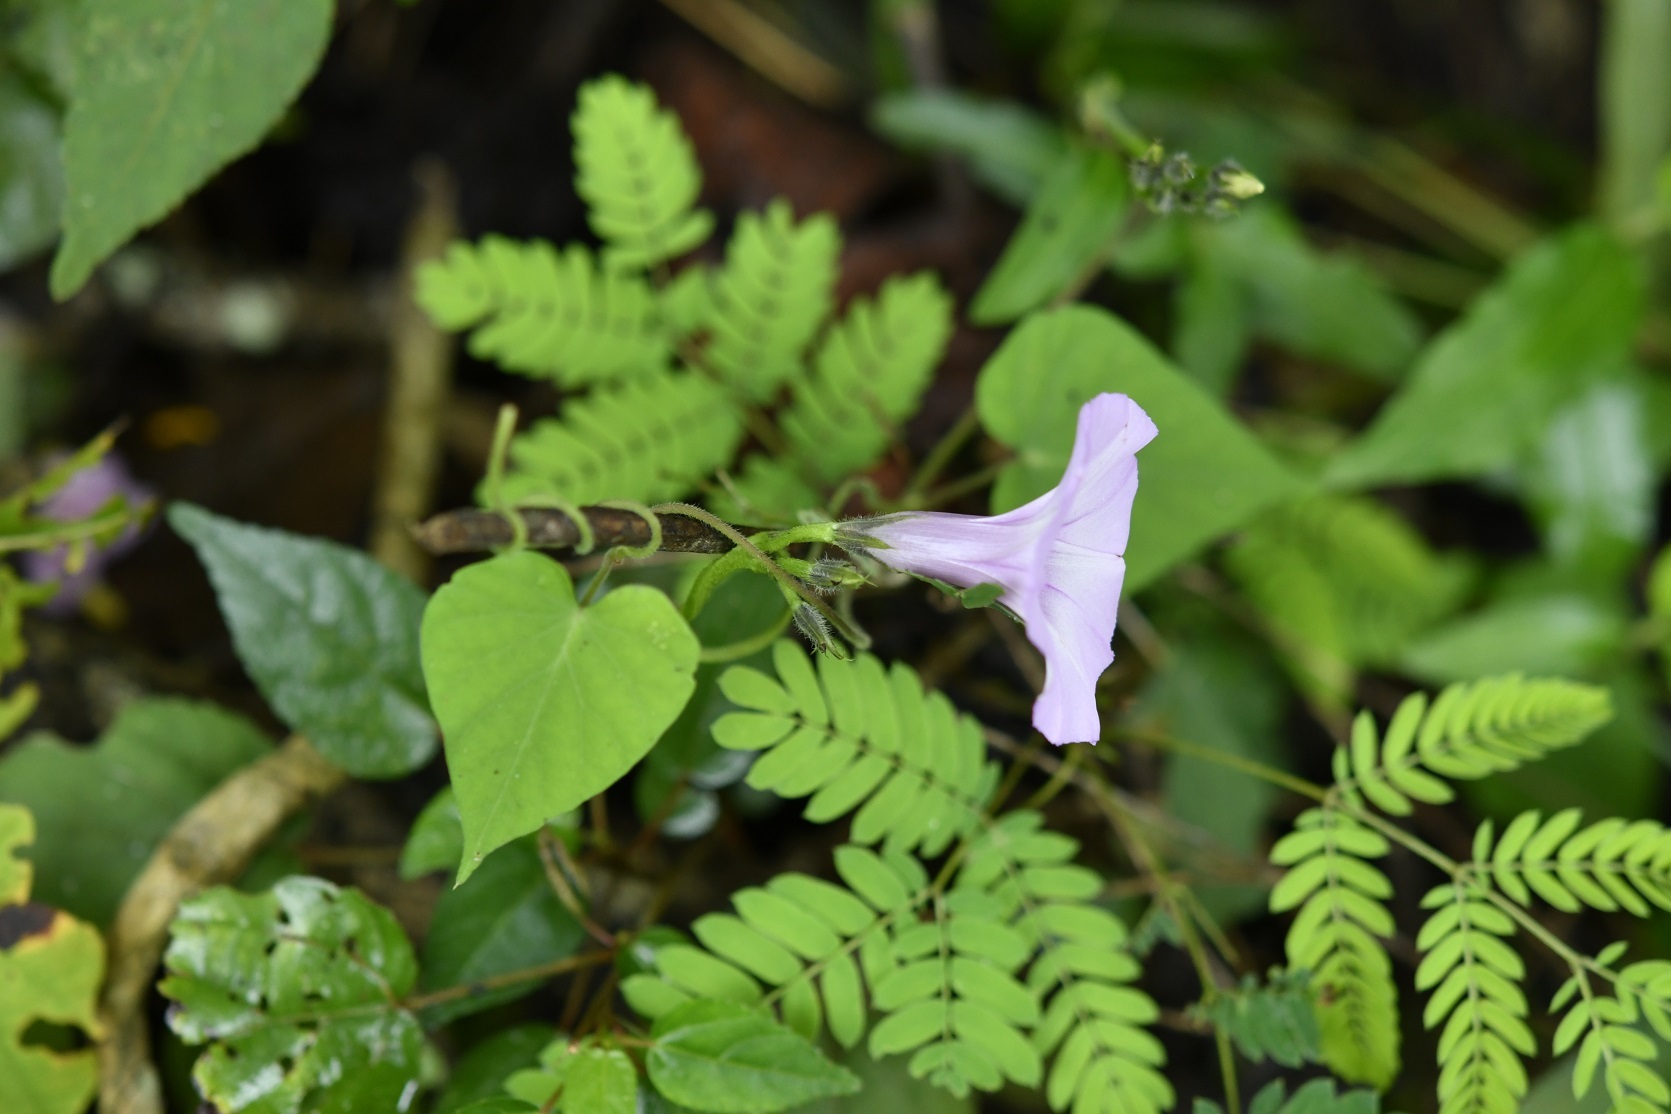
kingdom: Plantae
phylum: Tracheophyta
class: Magnoliopsida
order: Solanales
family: Convolvulaceae
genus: Ipomoea
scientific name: Ipomoea trifida
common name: Cotton morningglory
